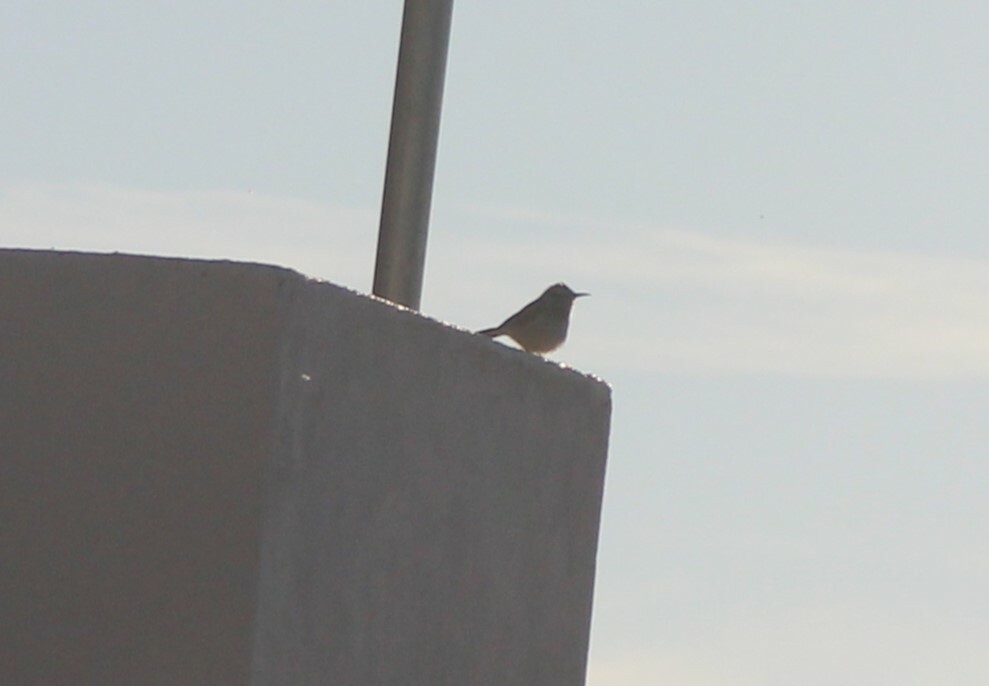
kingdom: Animalia
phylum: Chordata
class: Aves
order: Passeriformes
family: Troglodytidae
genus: Campylorhynchus
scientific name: Campylorhynchus brunneicapillus
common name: Cactus wren
